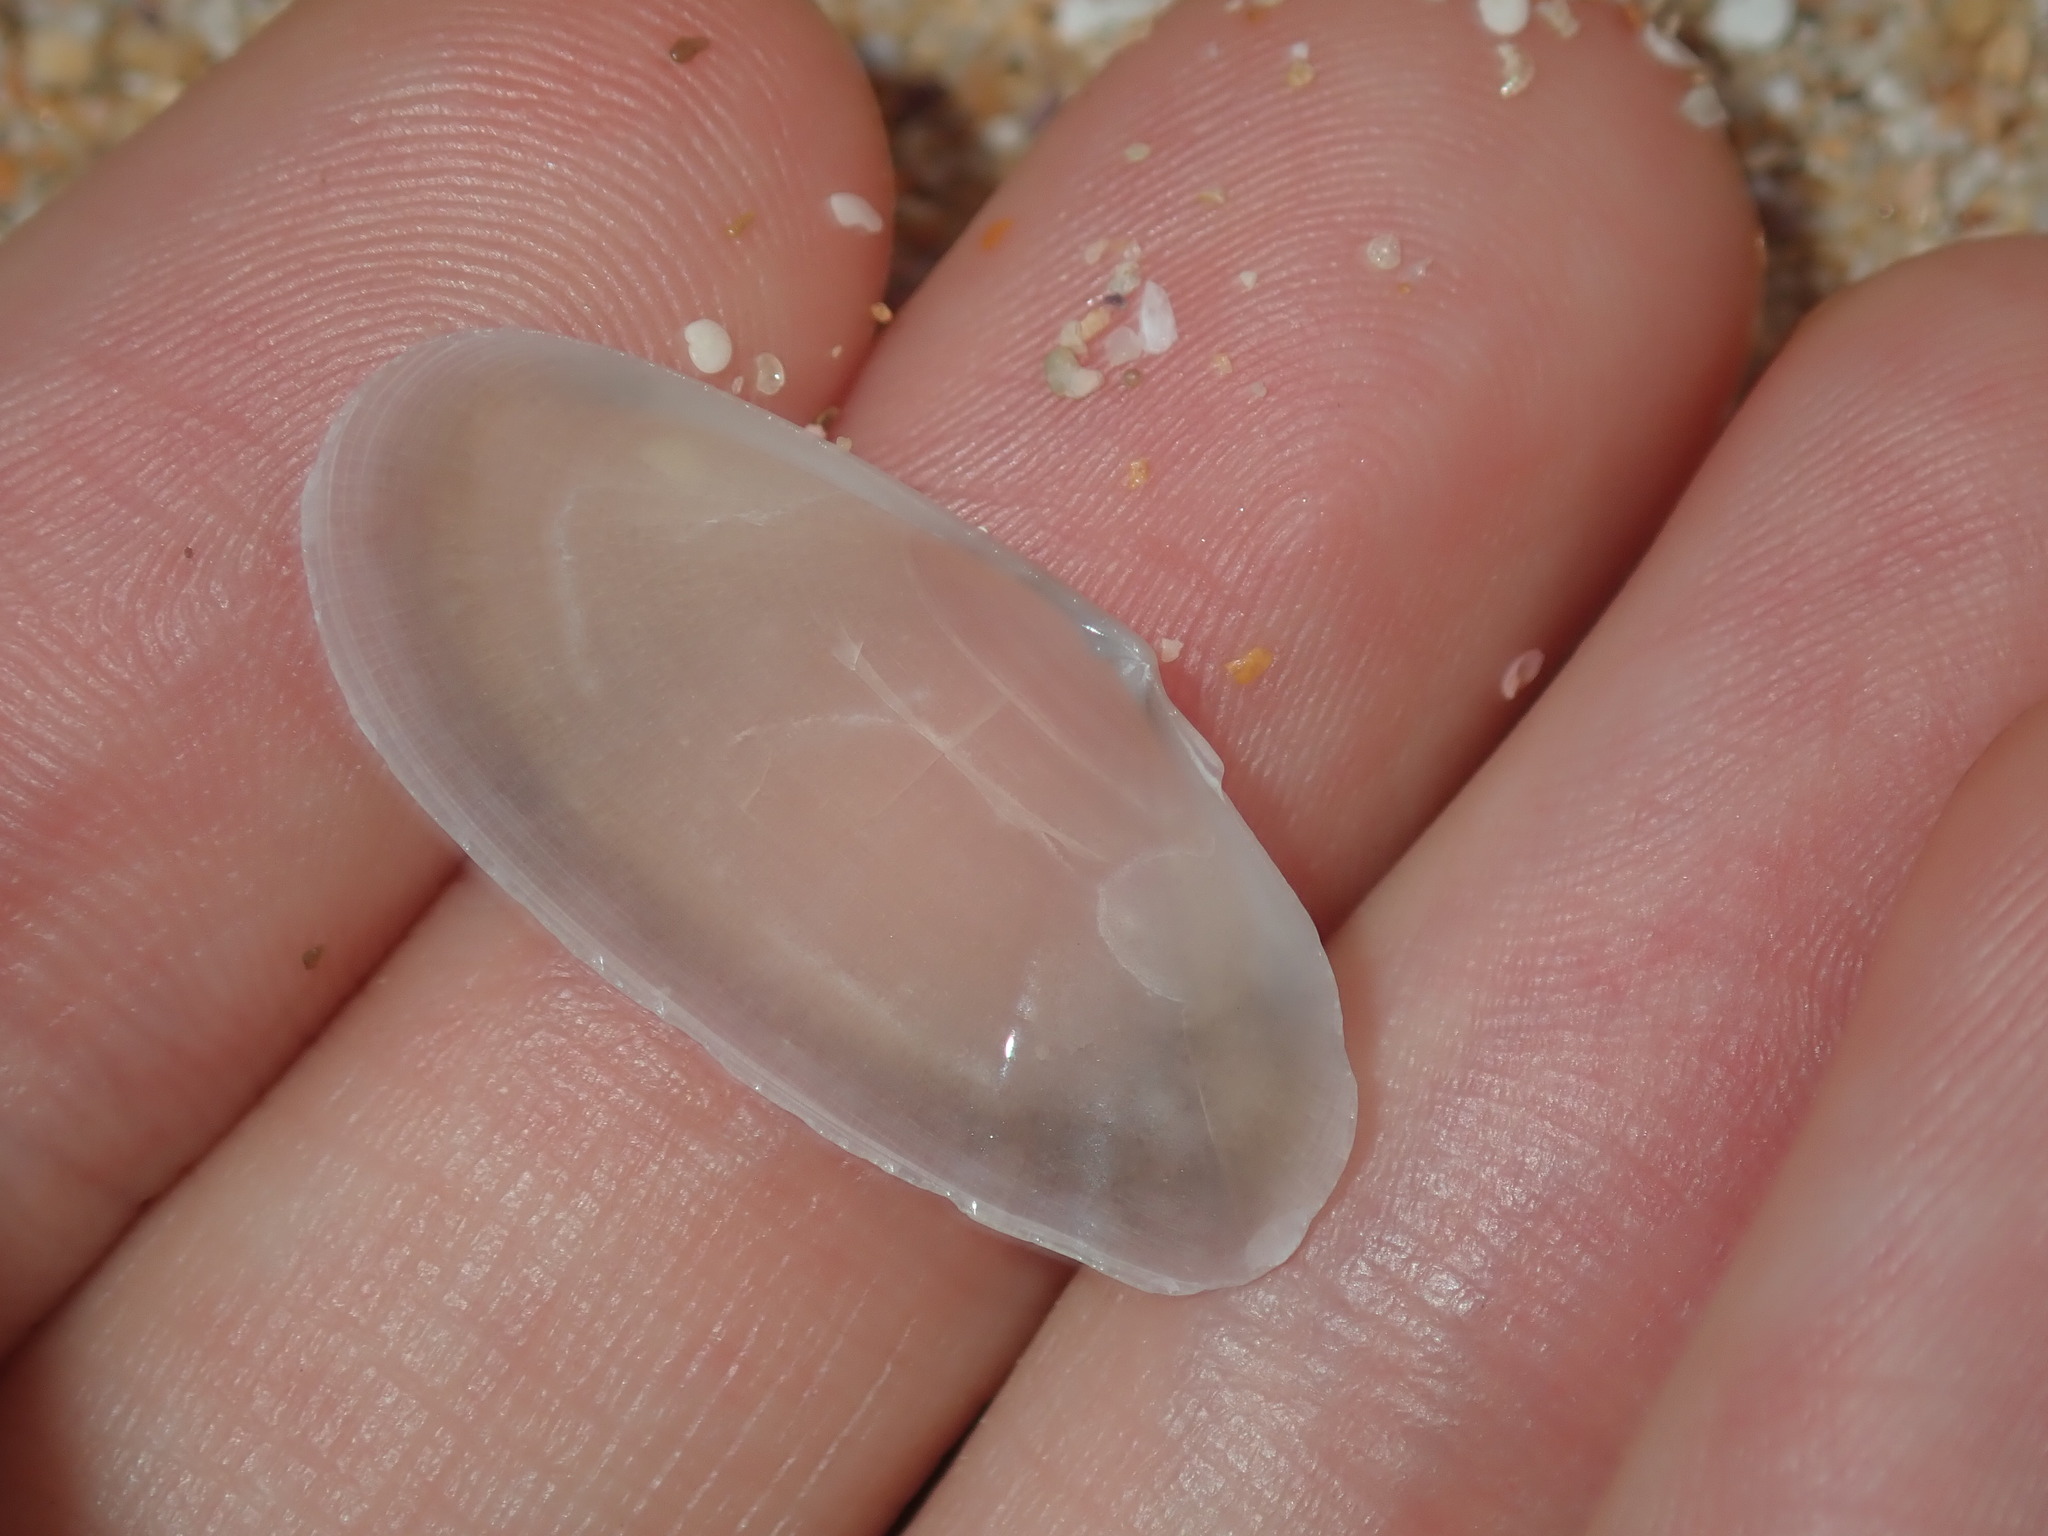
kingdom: Animalia
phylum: Mollusca
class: Bivalvia
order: Cardiida
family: Psammobiidae
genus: Gari
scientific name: Gari livida
